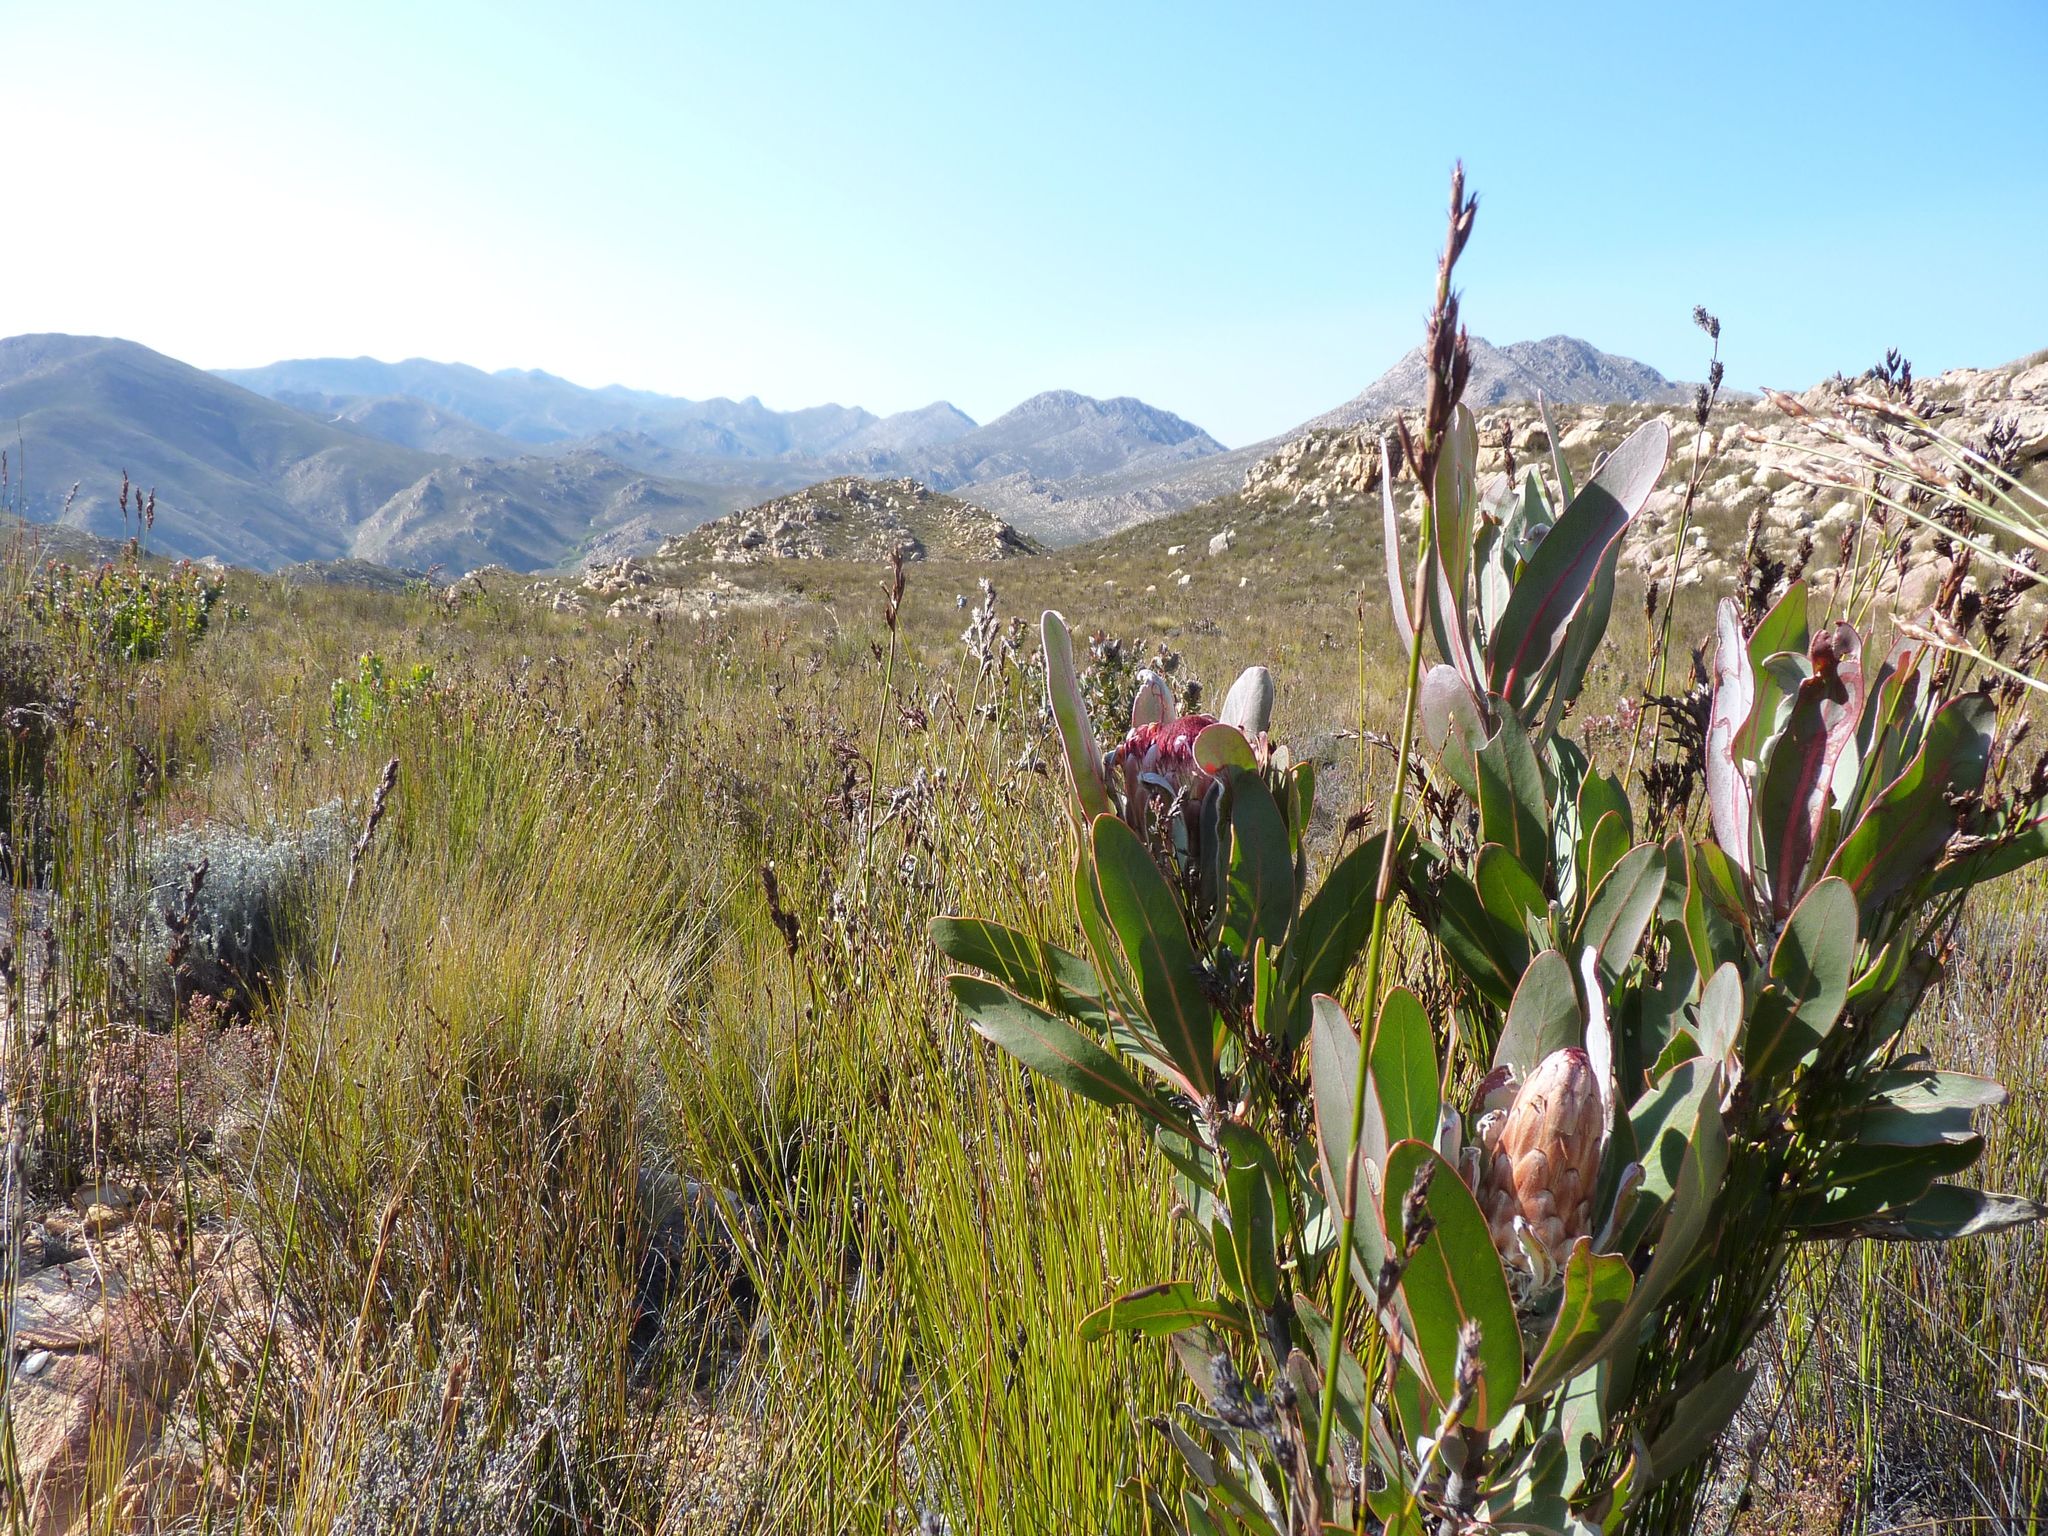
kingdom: Plantae
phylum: Tracheophyta
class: Magnoliopsida
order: Proteales
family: Proteaceae
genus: Protea
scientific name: Protea lorifolia
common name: Strap-leaved protea
